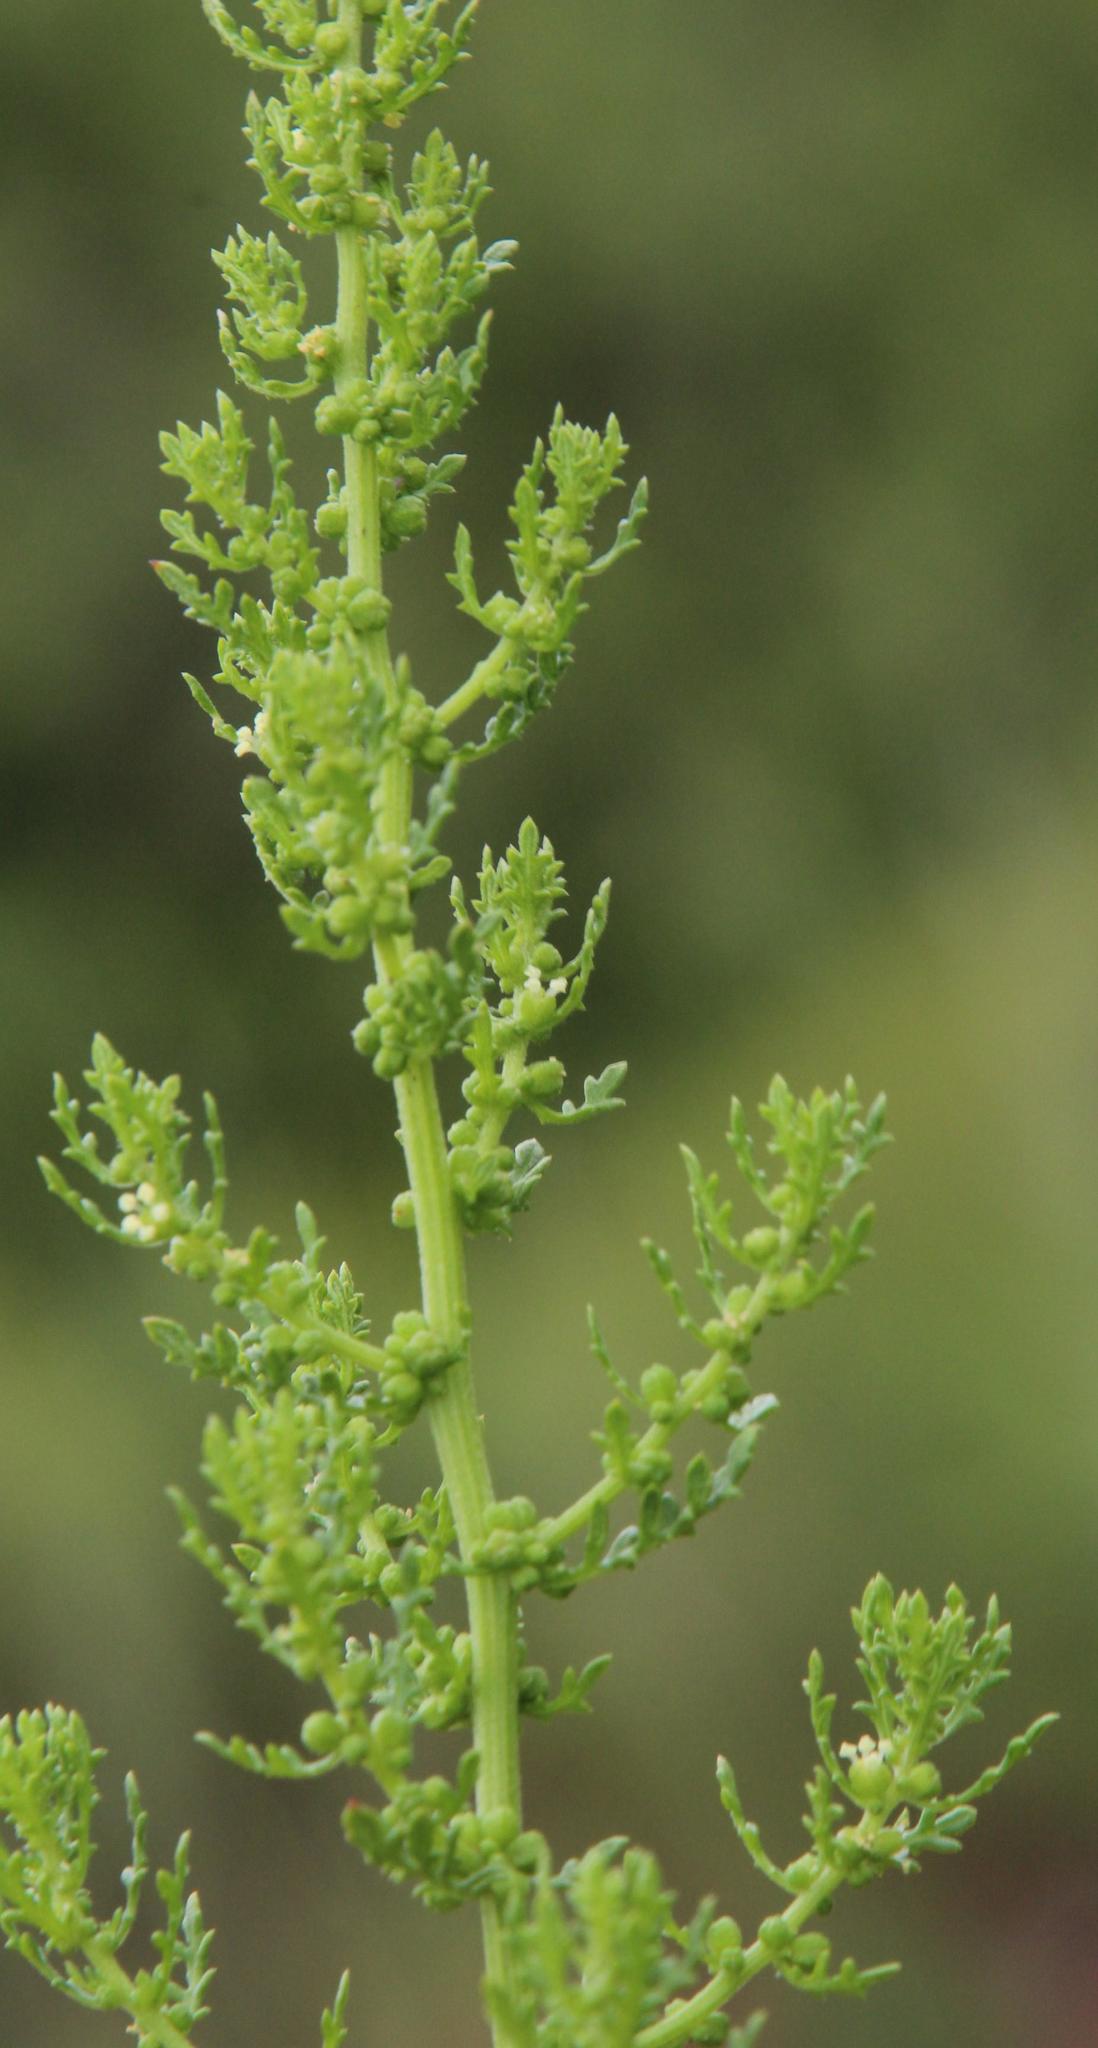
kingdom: Plantae
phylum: Tracheophyta
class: Magnoliopsida
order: Caryophyllales
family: Amaranthaceae
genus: Dysphania
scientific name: Dysphania multifida
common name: Cutleaf goosefoot
